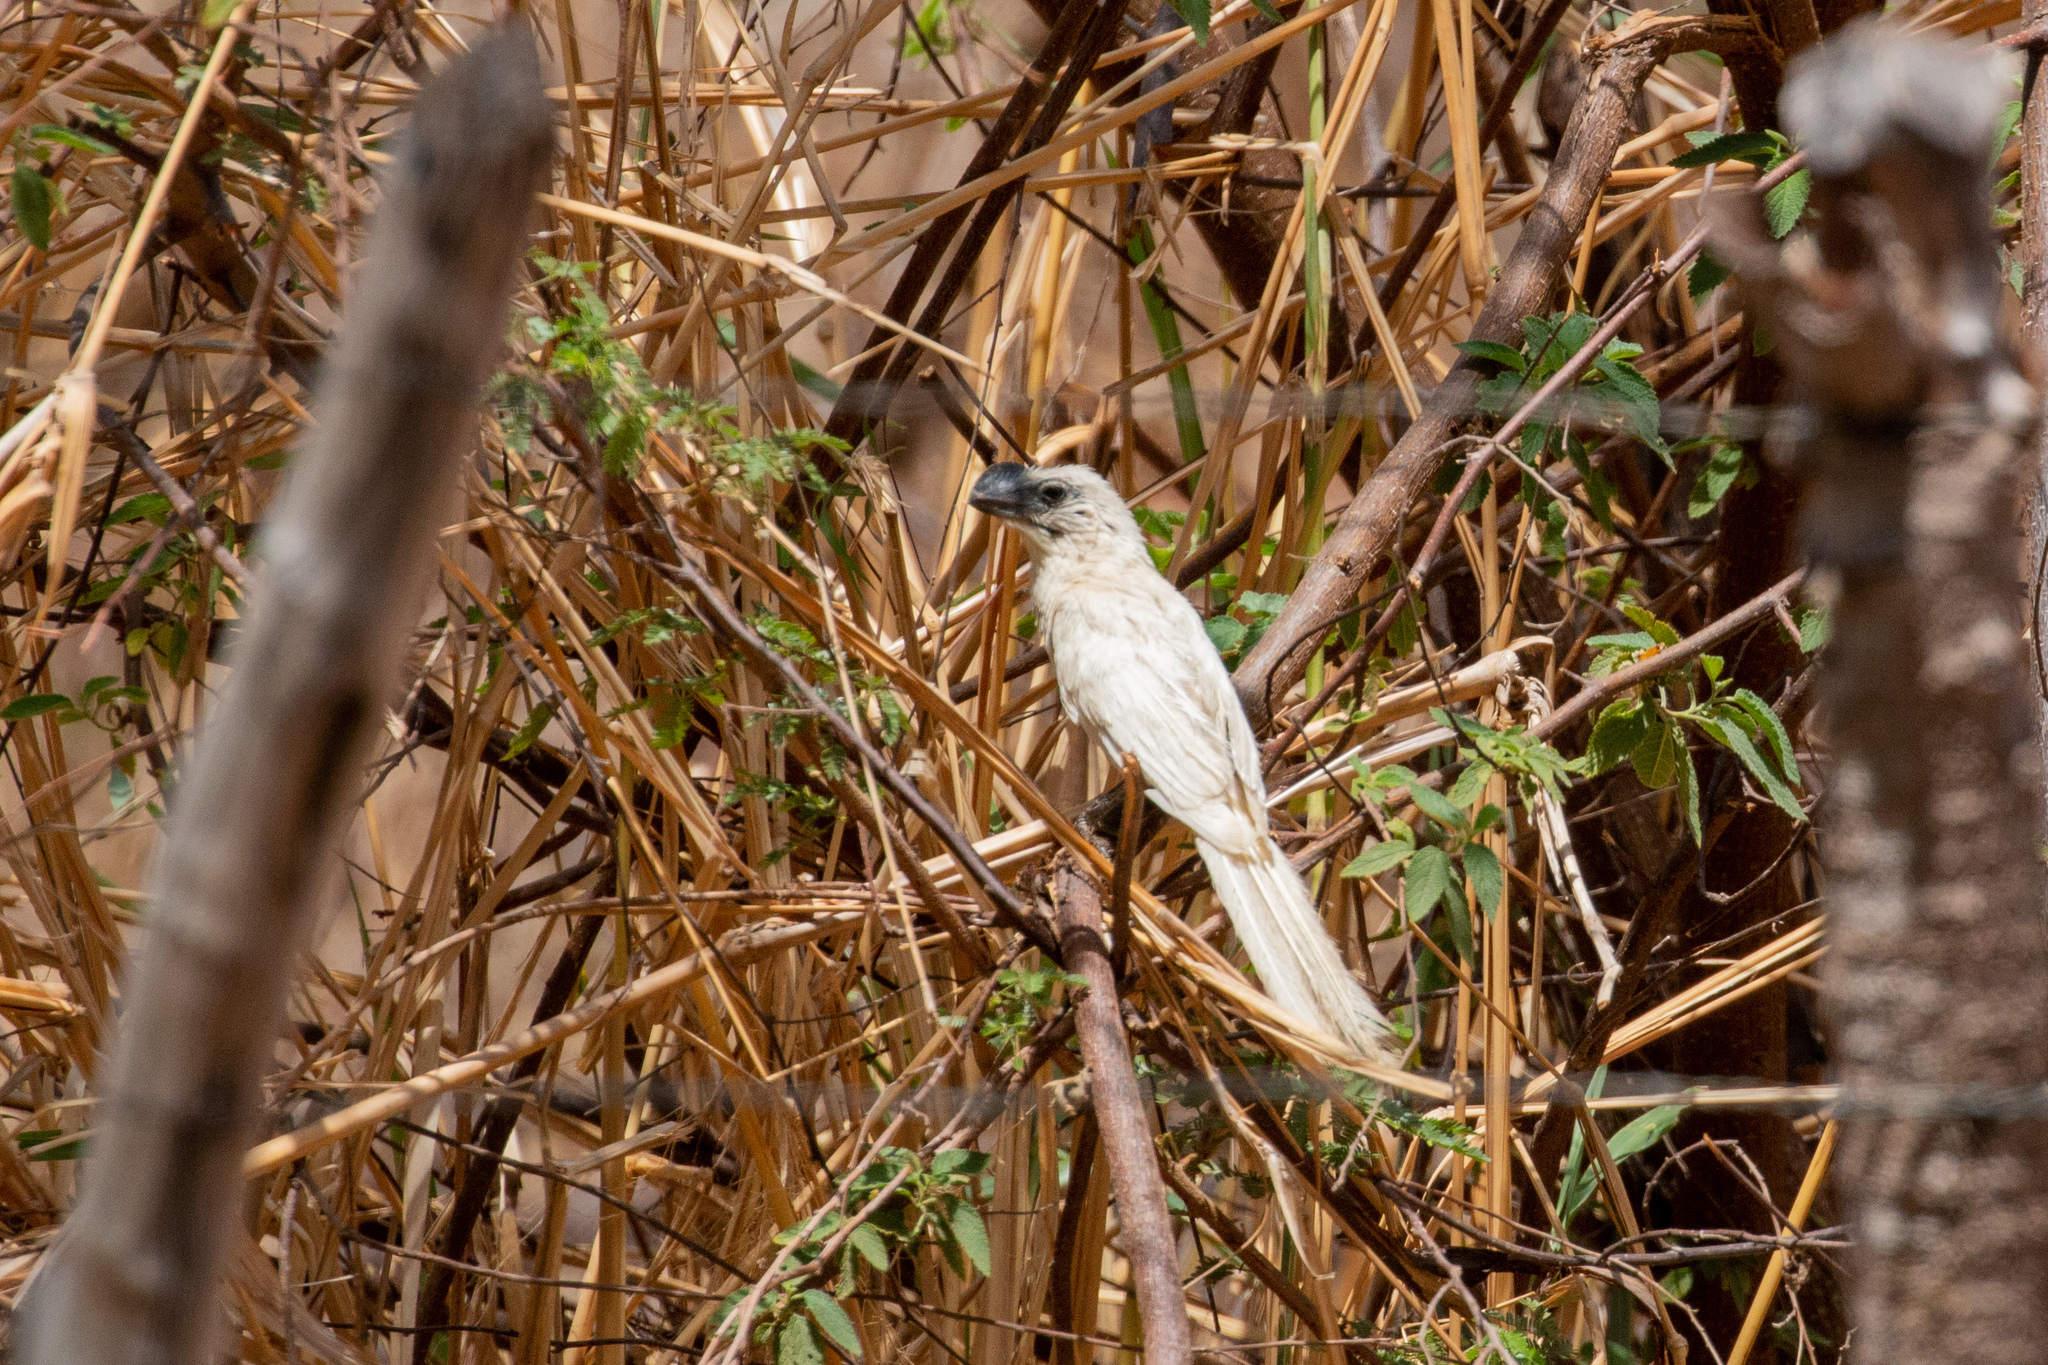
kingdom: Animalia
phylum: Chordata
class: Aves
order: Cuculiformes
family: Cuculidae
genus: Crotophaga
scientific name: Crotophaga ani
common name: Smooth-billed ani
